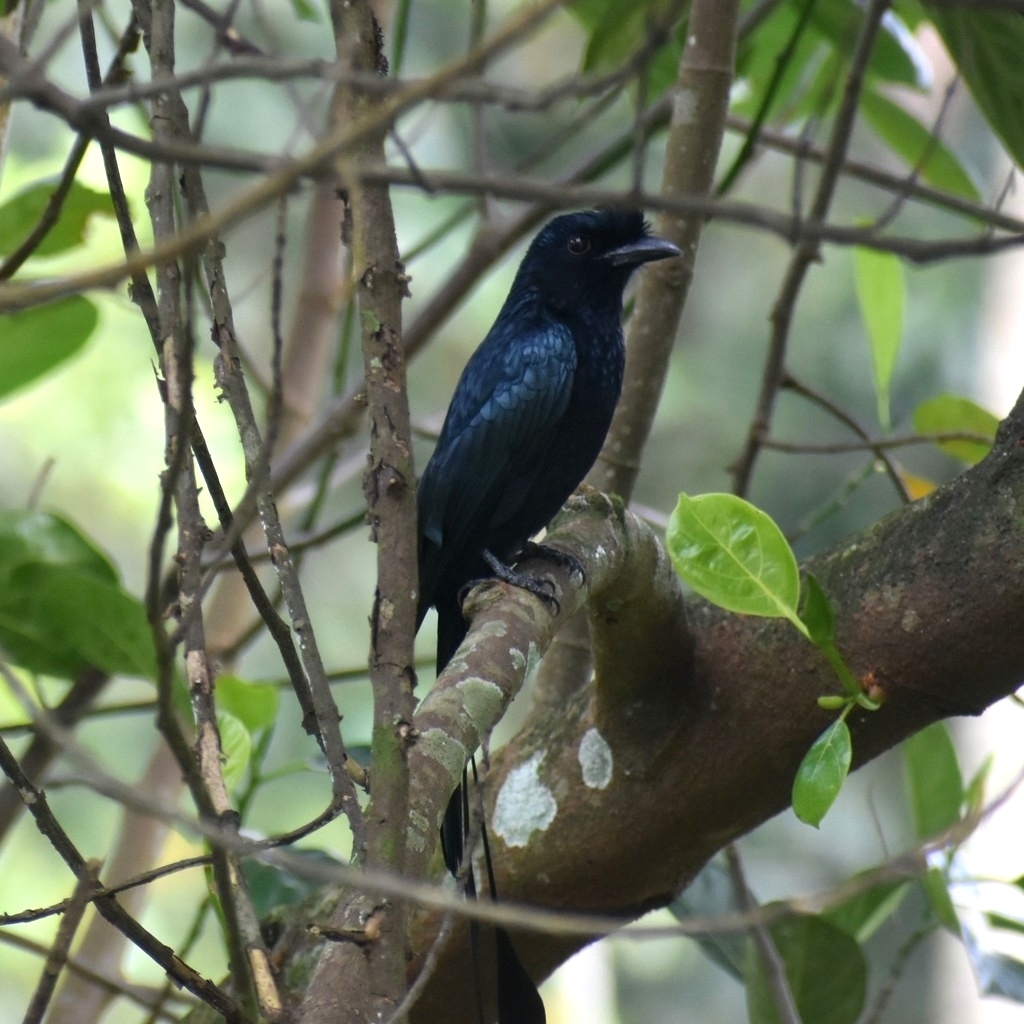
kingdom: Animalia
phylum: Chordata
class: Aves
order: Passeriformes
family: Dicruridae
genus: Dicrurus
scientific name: Dicrurus paradiseus
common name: Greater racket-tailed drongo
